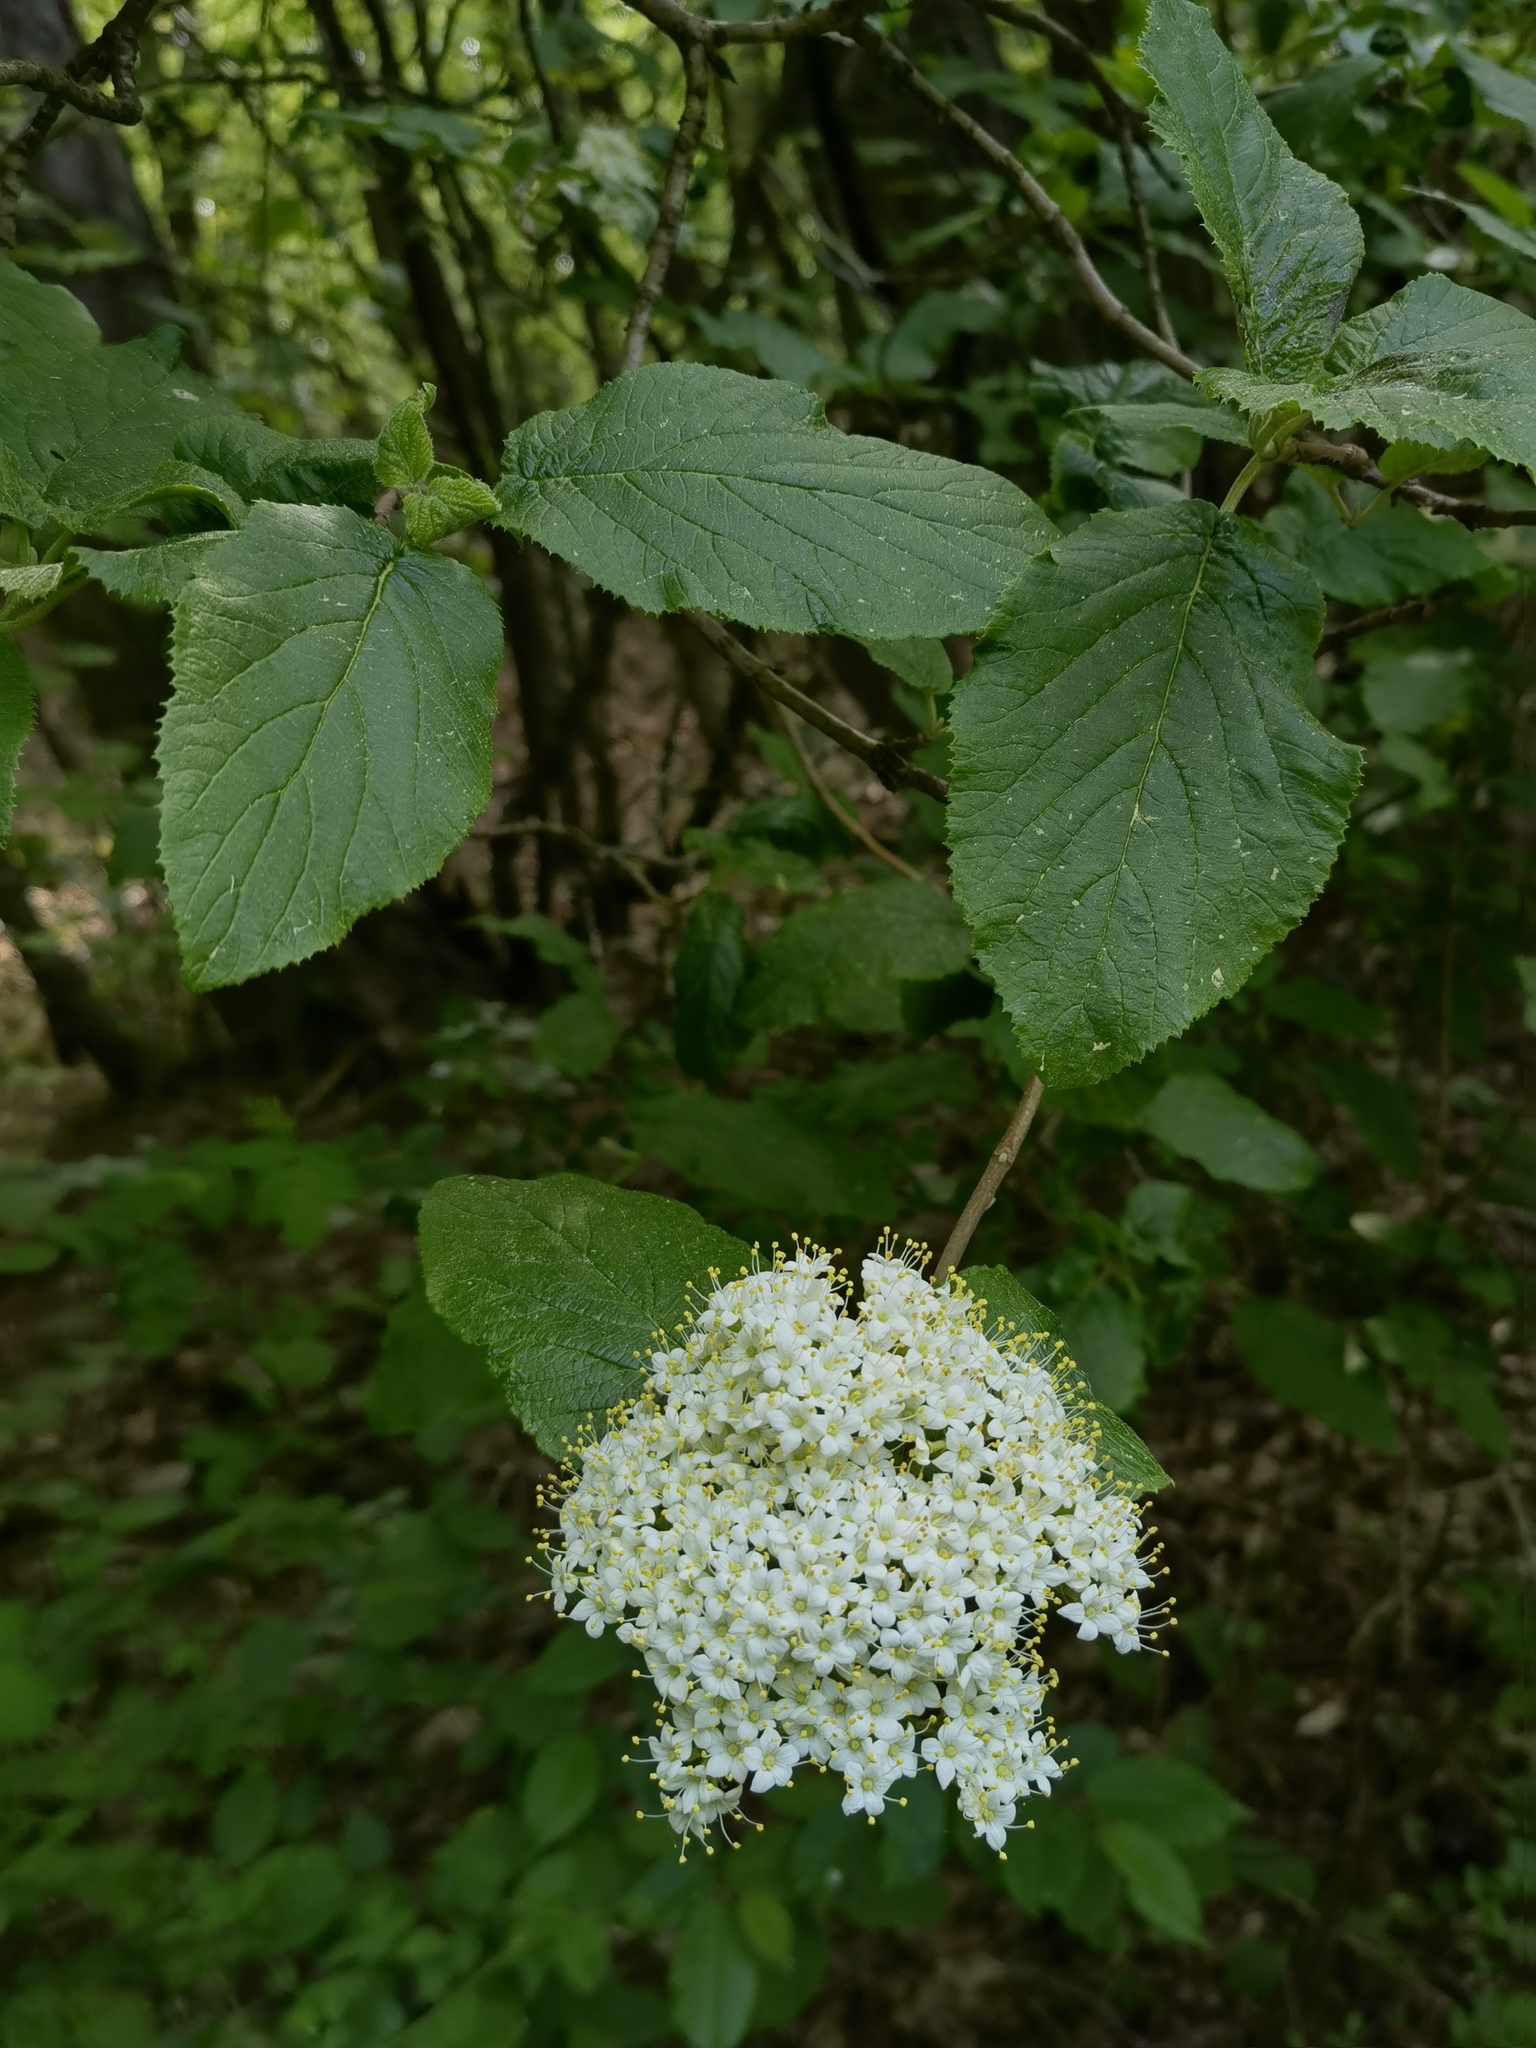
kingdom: Plantae
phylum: Tracheophyta
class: Magnoliopsida
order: Dipsacales
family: Viburnaceae
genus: Viburnum
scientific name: Viburnum lantana
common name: Wayfaring tree
